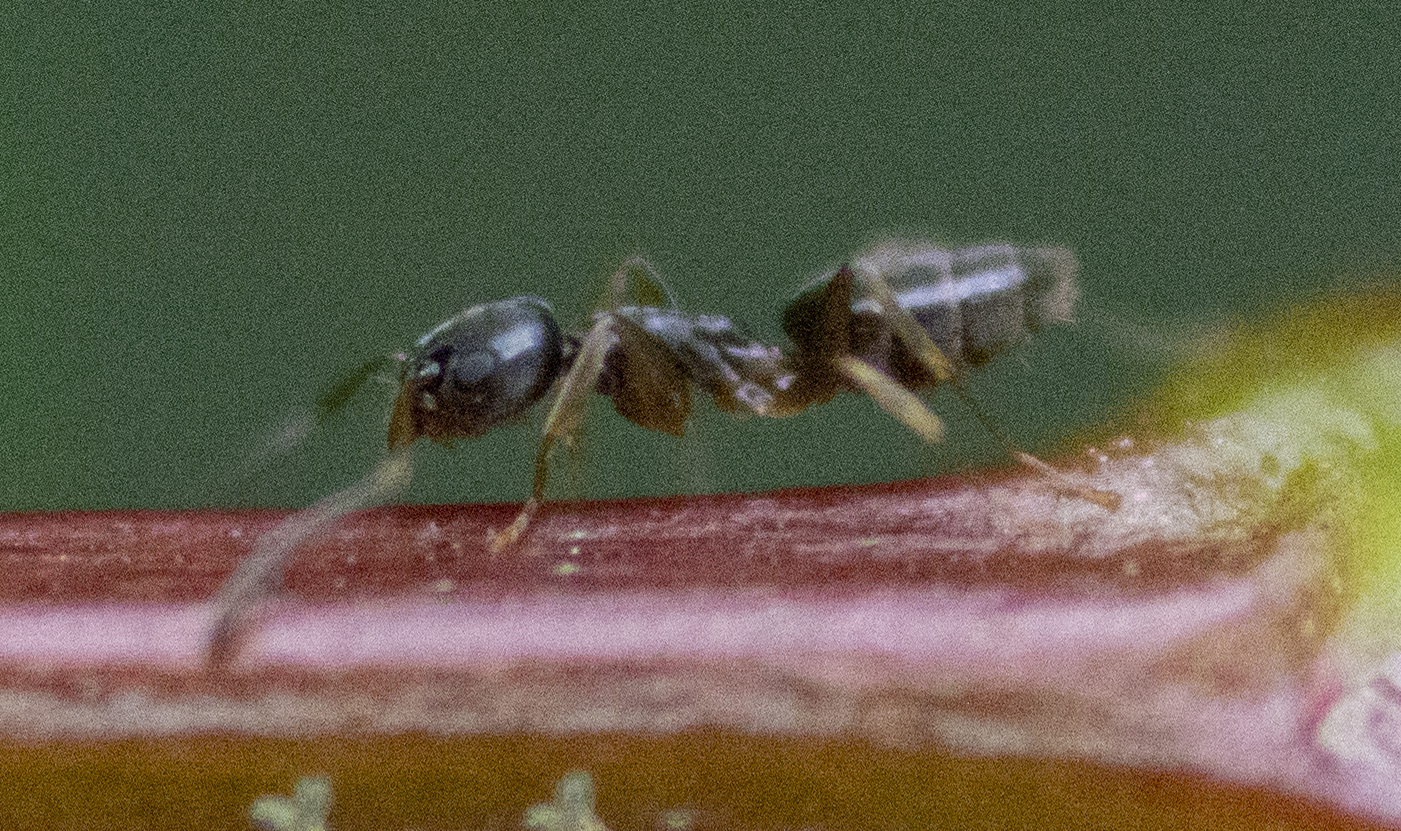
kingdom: Animalia
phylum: Arthropoda
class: Insecta
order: Hymenoptera
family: Formicidae
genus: Tapinoma
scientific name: Tapinoma sessile
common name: Odorous house ant
